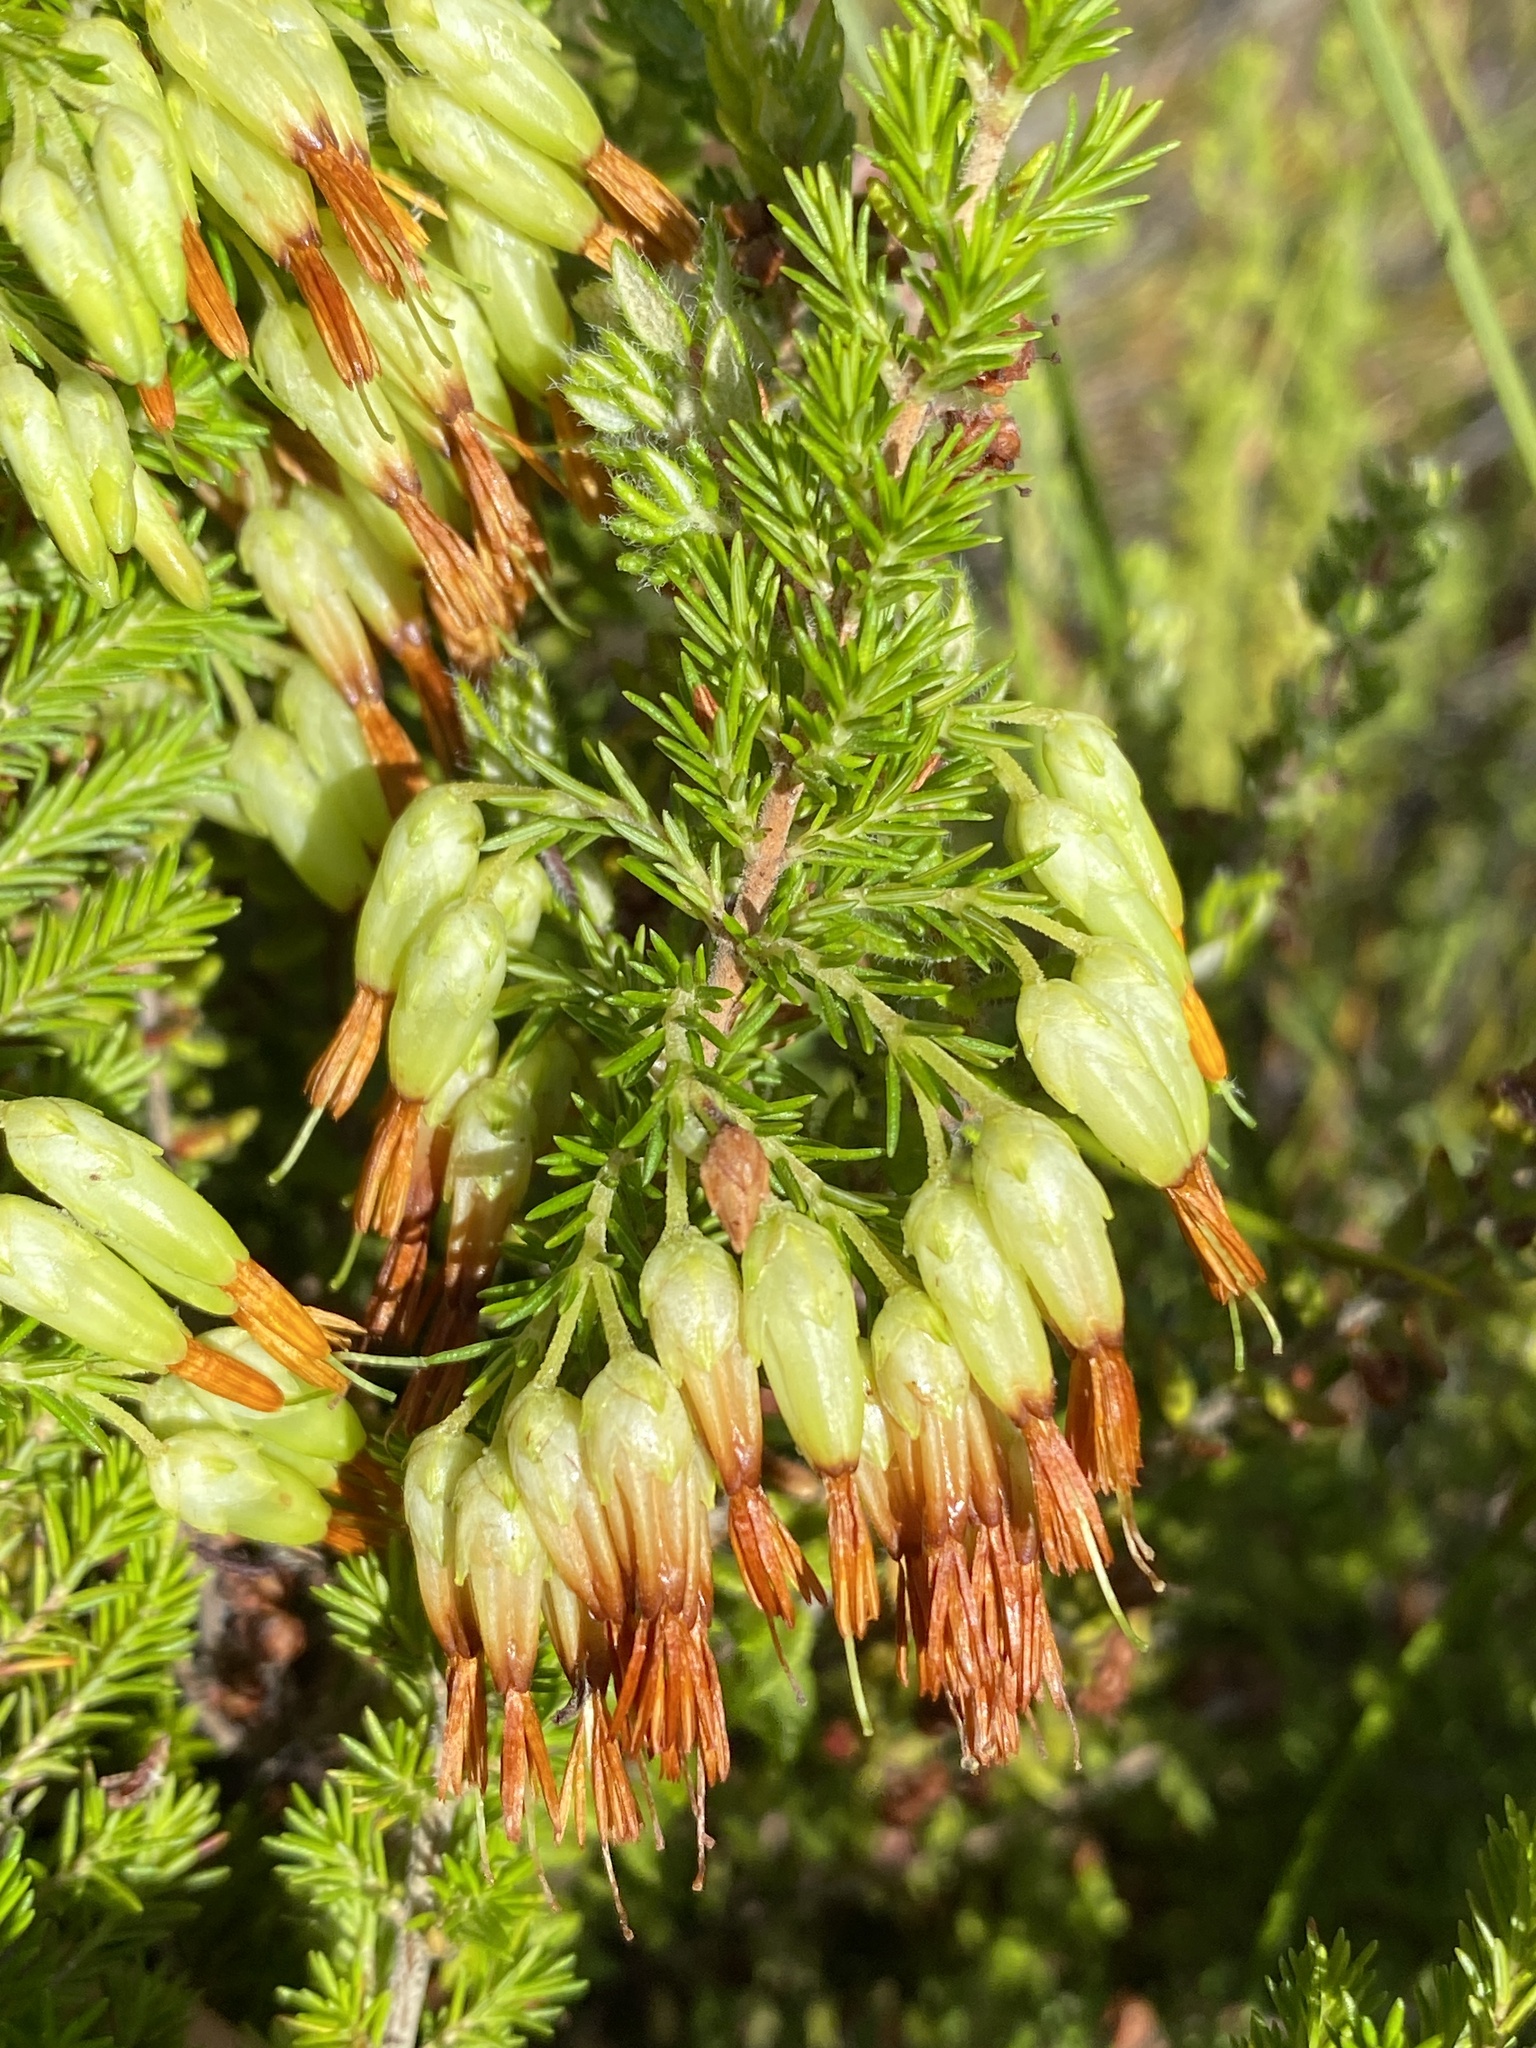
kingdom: Plantae
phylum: Tracheophyta
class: Magnoliopsida
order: Ericales
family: Ericaceae
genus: Erica
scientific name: Erica intermedia
